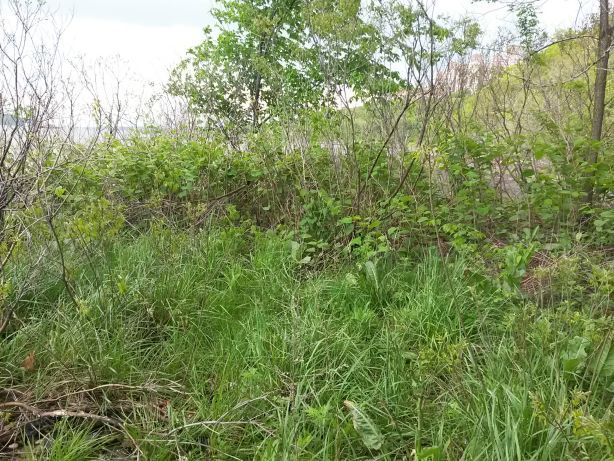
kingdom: Plantae
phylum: Tracheophyta
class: Magnoliopsida
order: Caryophyllales
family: Polygonaceae
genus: Reynoutria
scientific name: Reynoutria japonica
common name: Japanese knotweed
